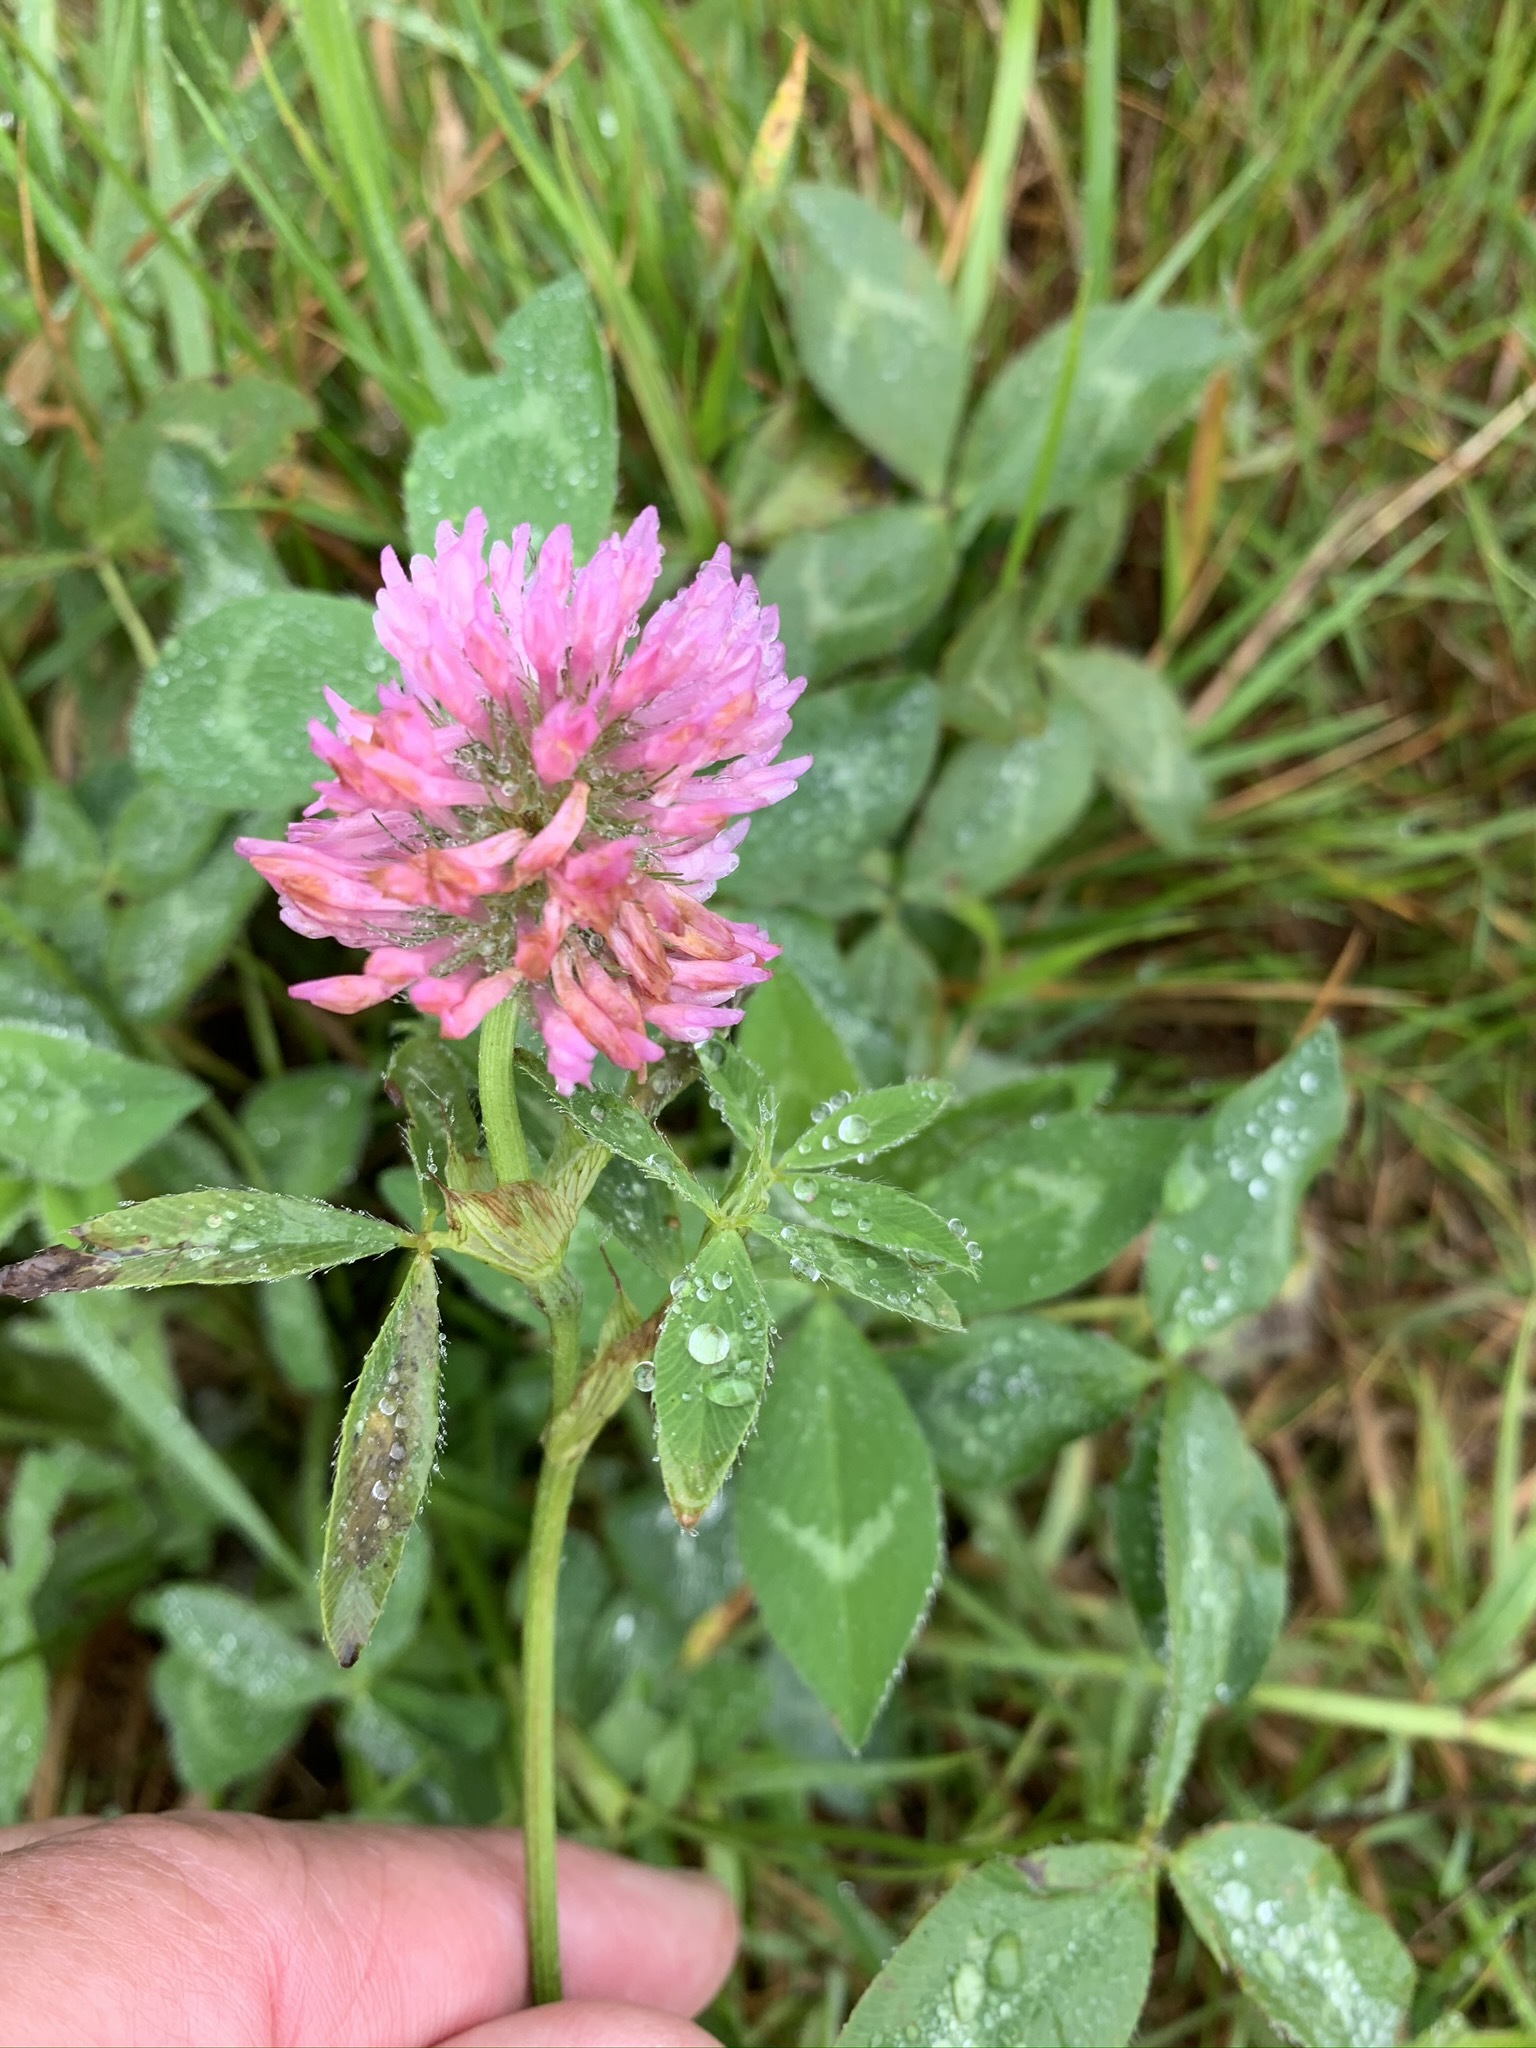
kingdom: Plantae
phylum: Tracheophyta
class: Magnoliopsida
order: Fabales
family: Fabaceae
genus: Trifolium
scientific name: Trifolium pratense
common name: Red clover
